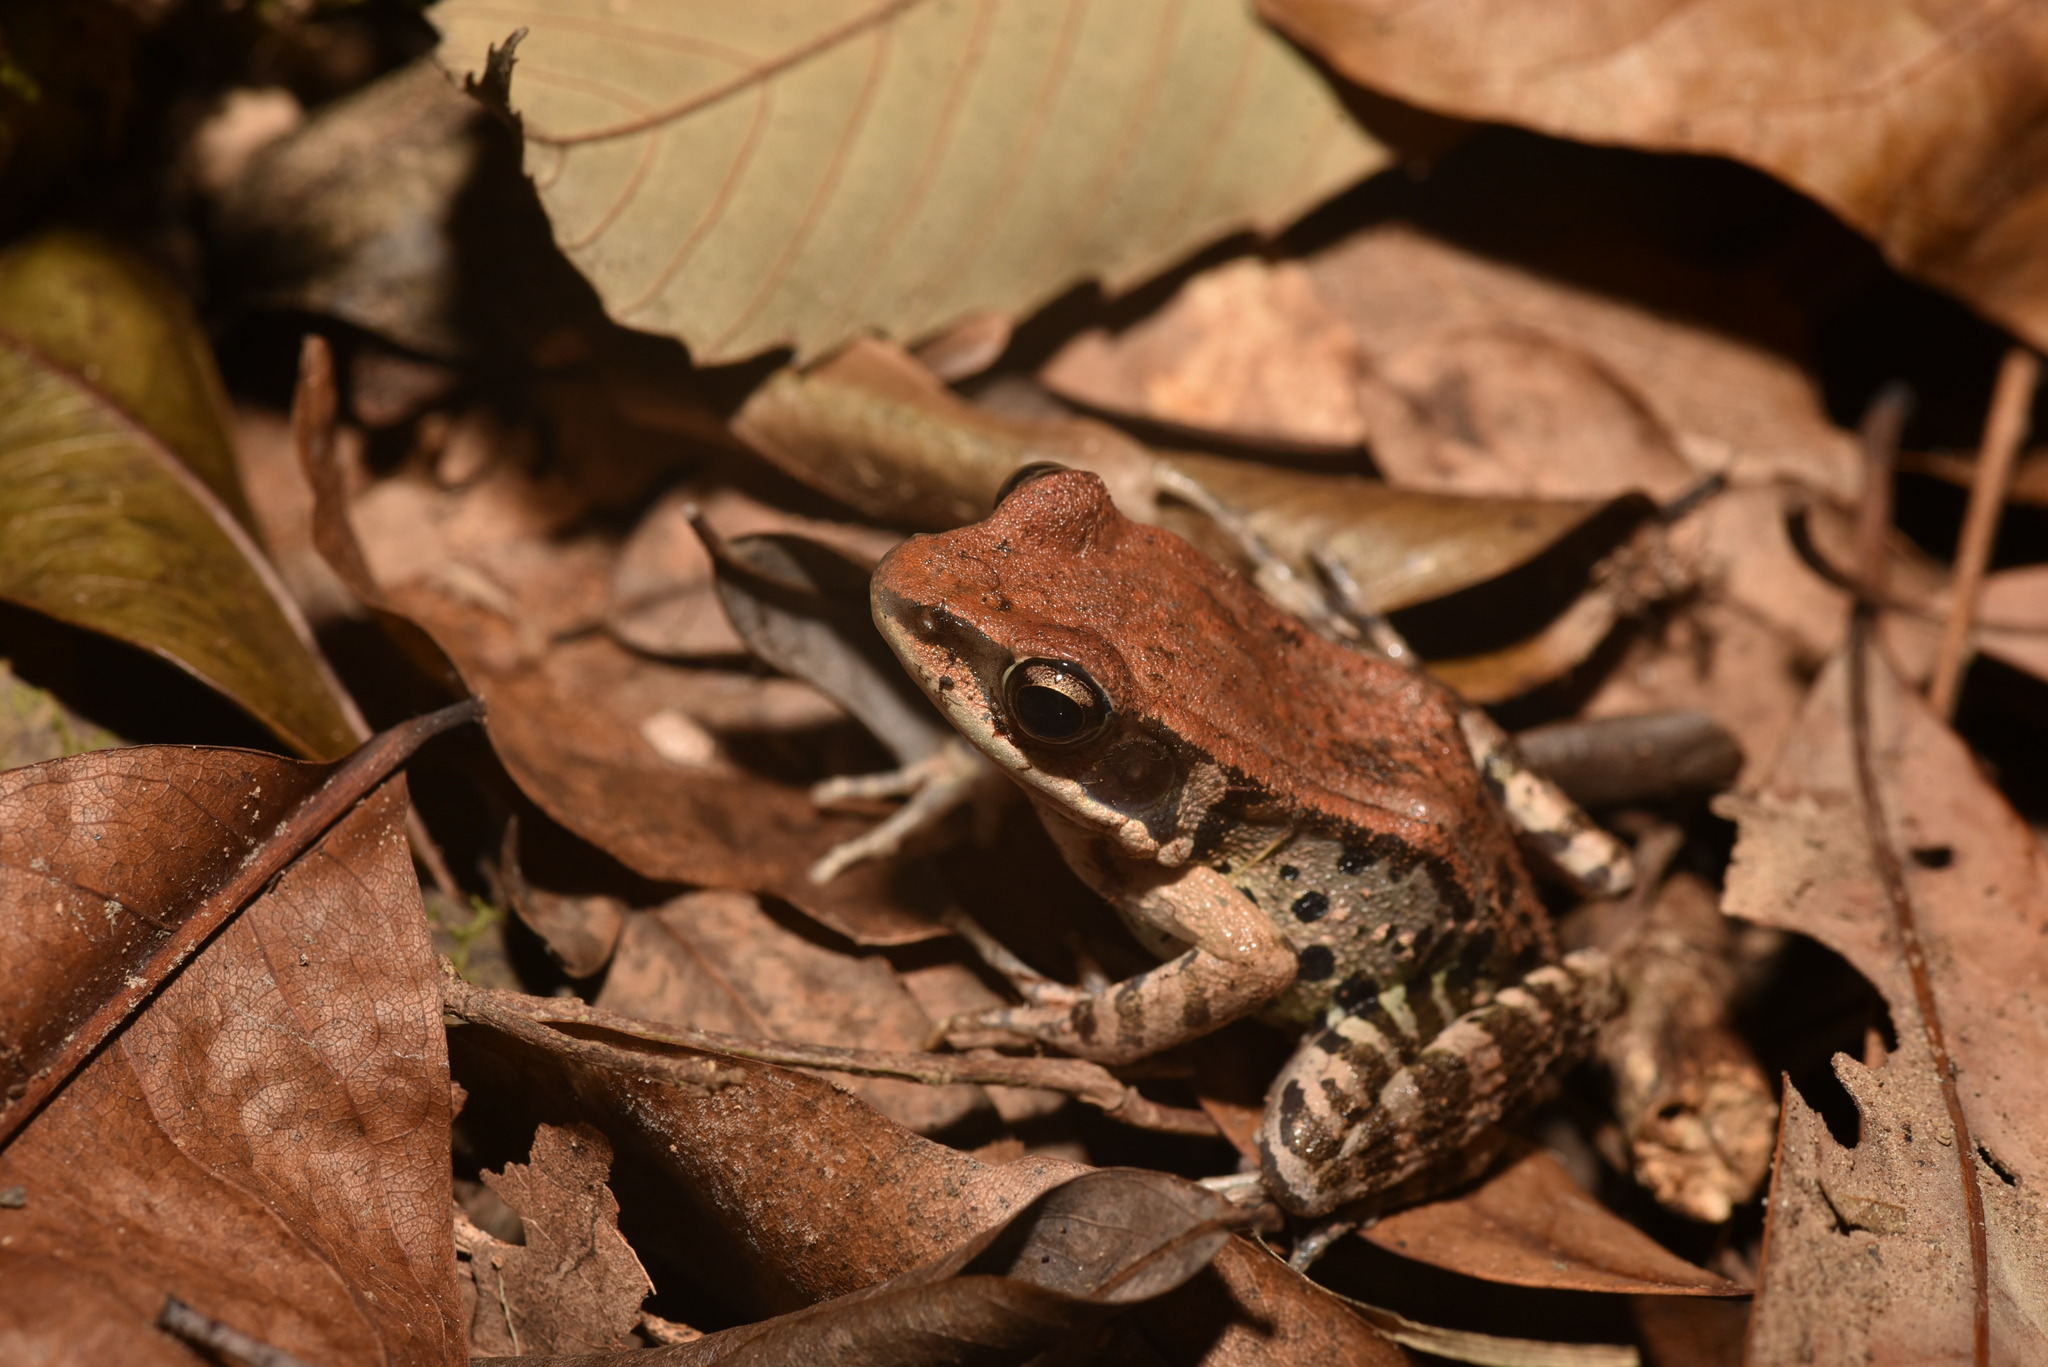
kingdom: Animalia
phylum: Chordata
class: Amphibia
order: Anura
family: Ranidae
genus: Hylarana
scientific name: Hylarana latouchii
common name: Broad-folded frog
